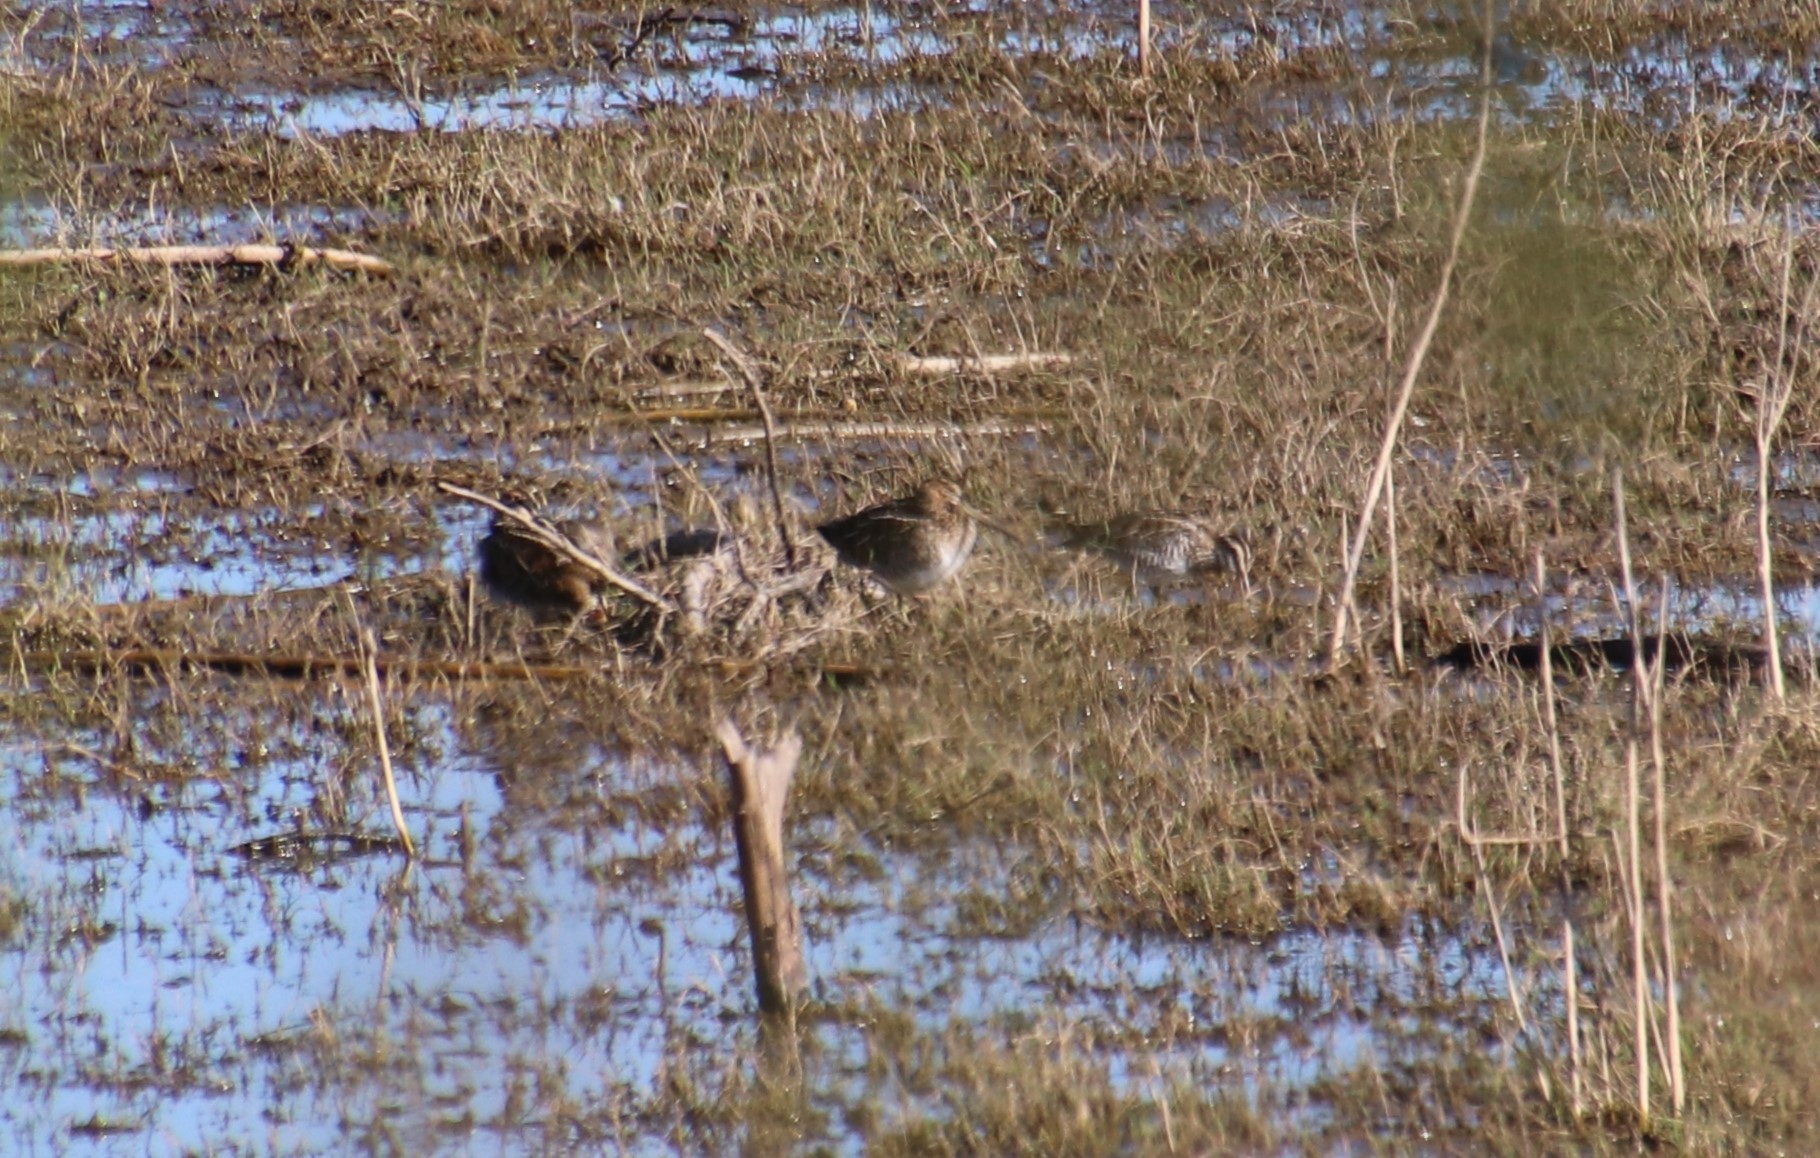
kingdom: Animalia
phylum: Chordata
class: Aves
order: Charadriiformes
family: Scolopacidae
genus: Gallinago
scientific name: Gallinago delicata
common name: Wilson's snipe
